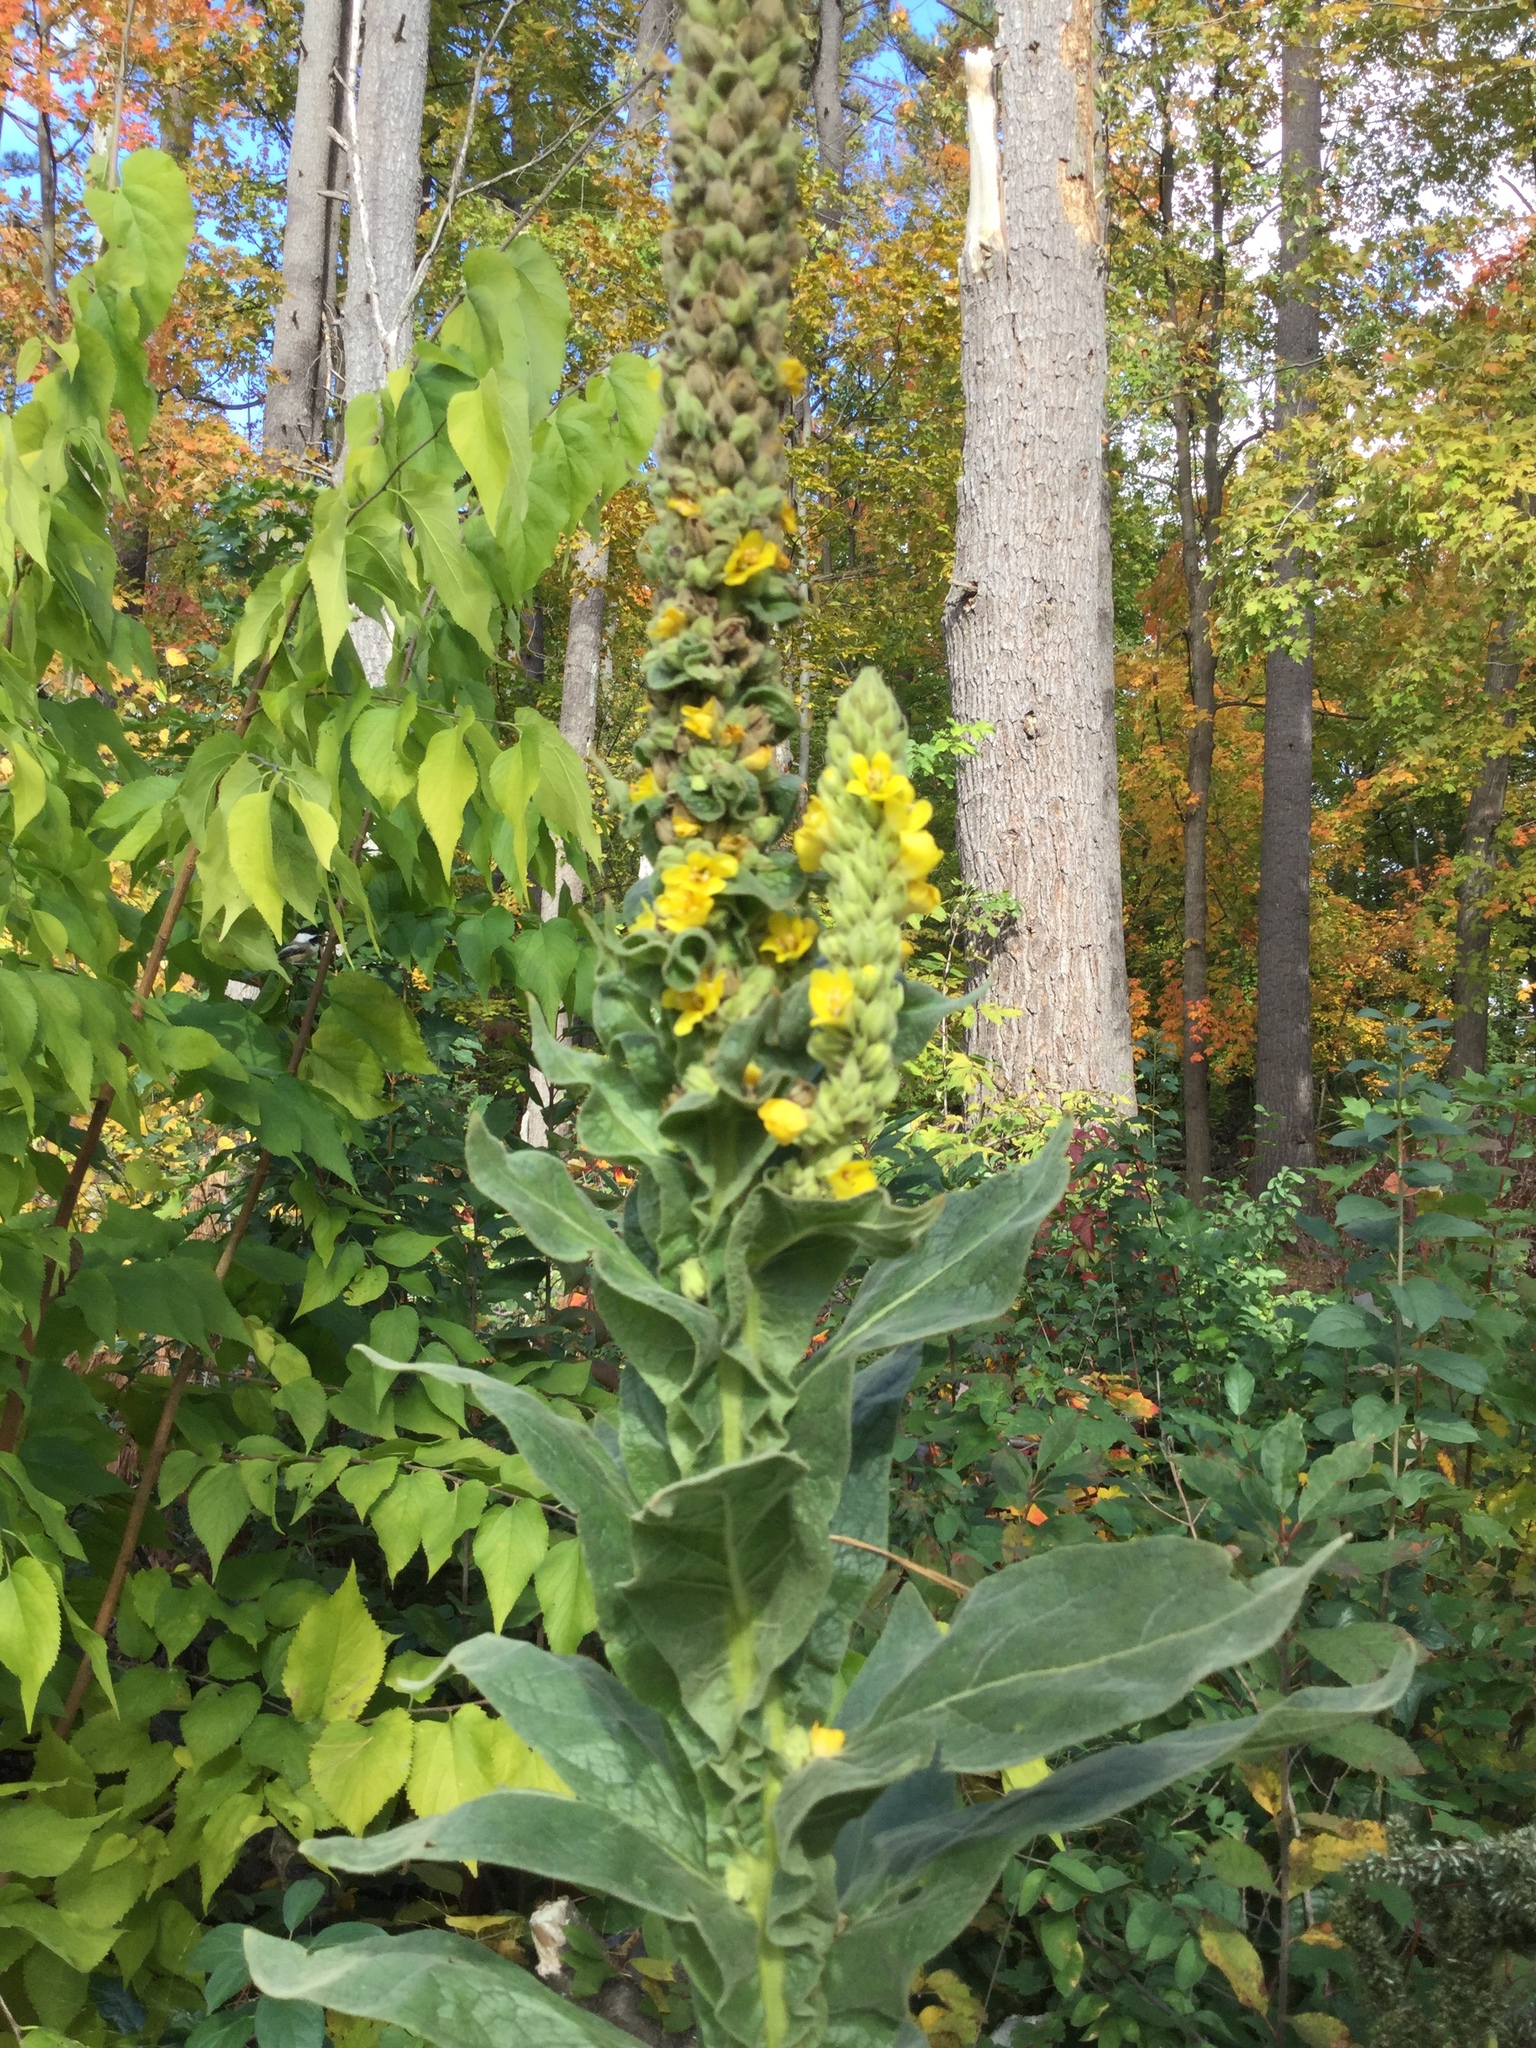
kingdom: Plantae
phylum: Tracheophyta
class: Magnoliopsida
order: Lamiales
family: Scrophulariaceae
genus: Verbascum
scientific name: Verbascum thapsus
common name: Common mullein
